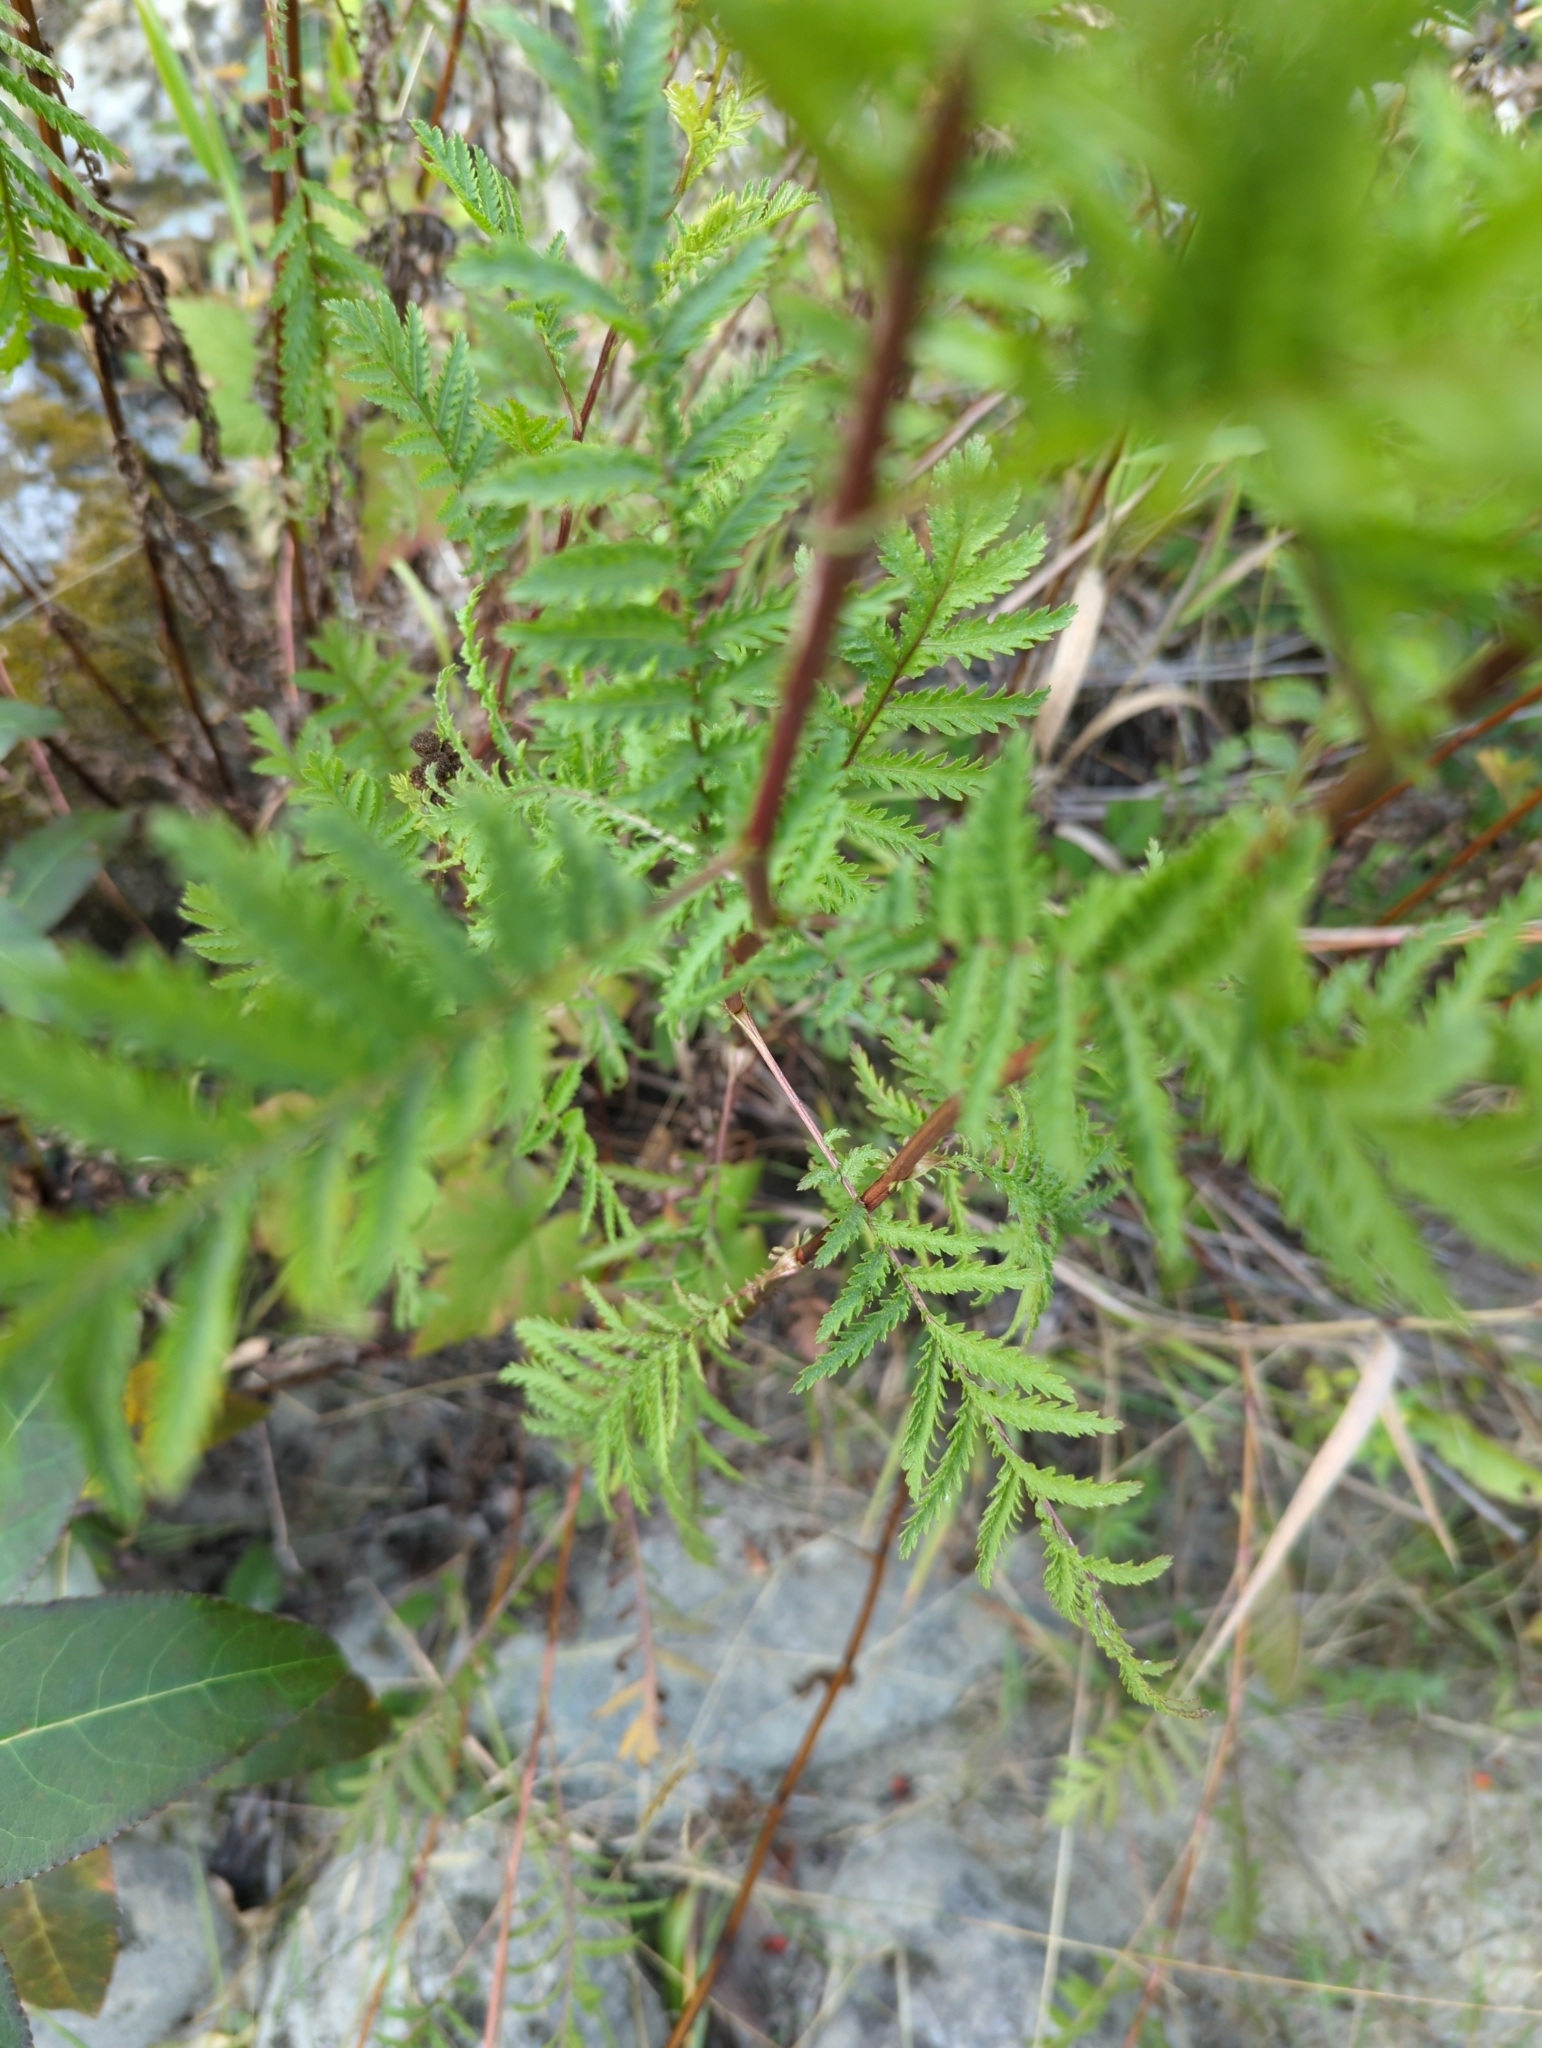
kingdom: Plantae
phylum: Tracheophyta
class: Magnoliopsida
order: Asterales
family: Asteraceae
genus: Tanacetum
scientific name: Tanacetum vulgare
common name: Common tansy
